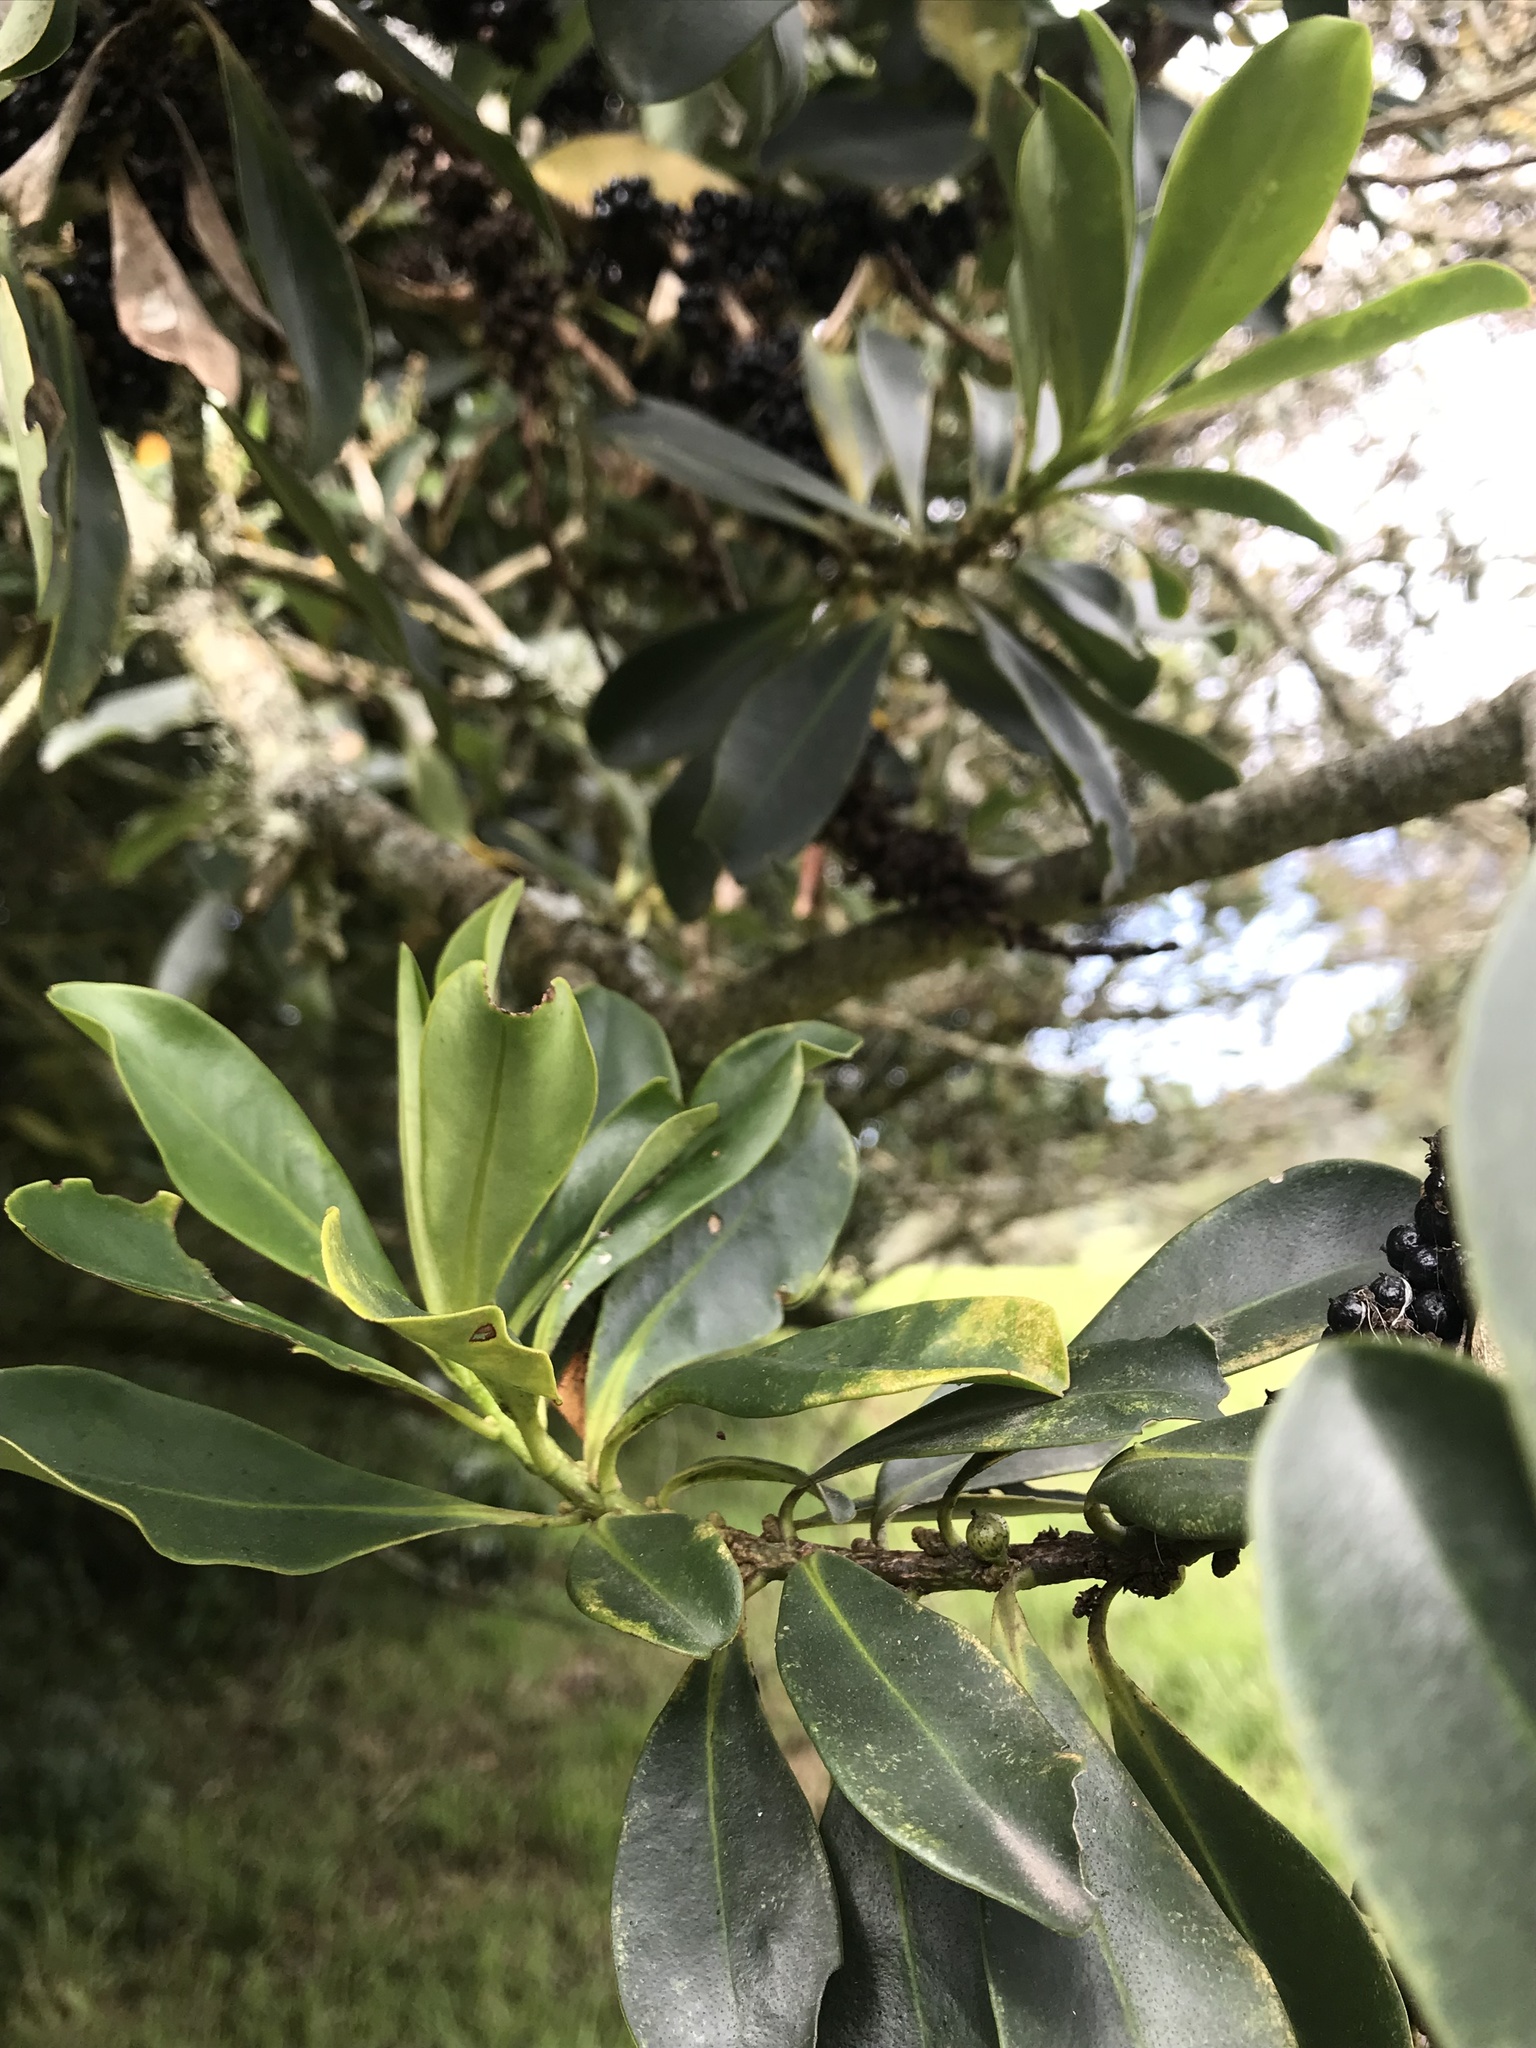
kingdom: Plantae
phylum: Tracheophyta
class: Magnoliopsida
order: Ericales
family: Primulaceae
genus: Myrsine
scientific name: Myrsine guianensis
